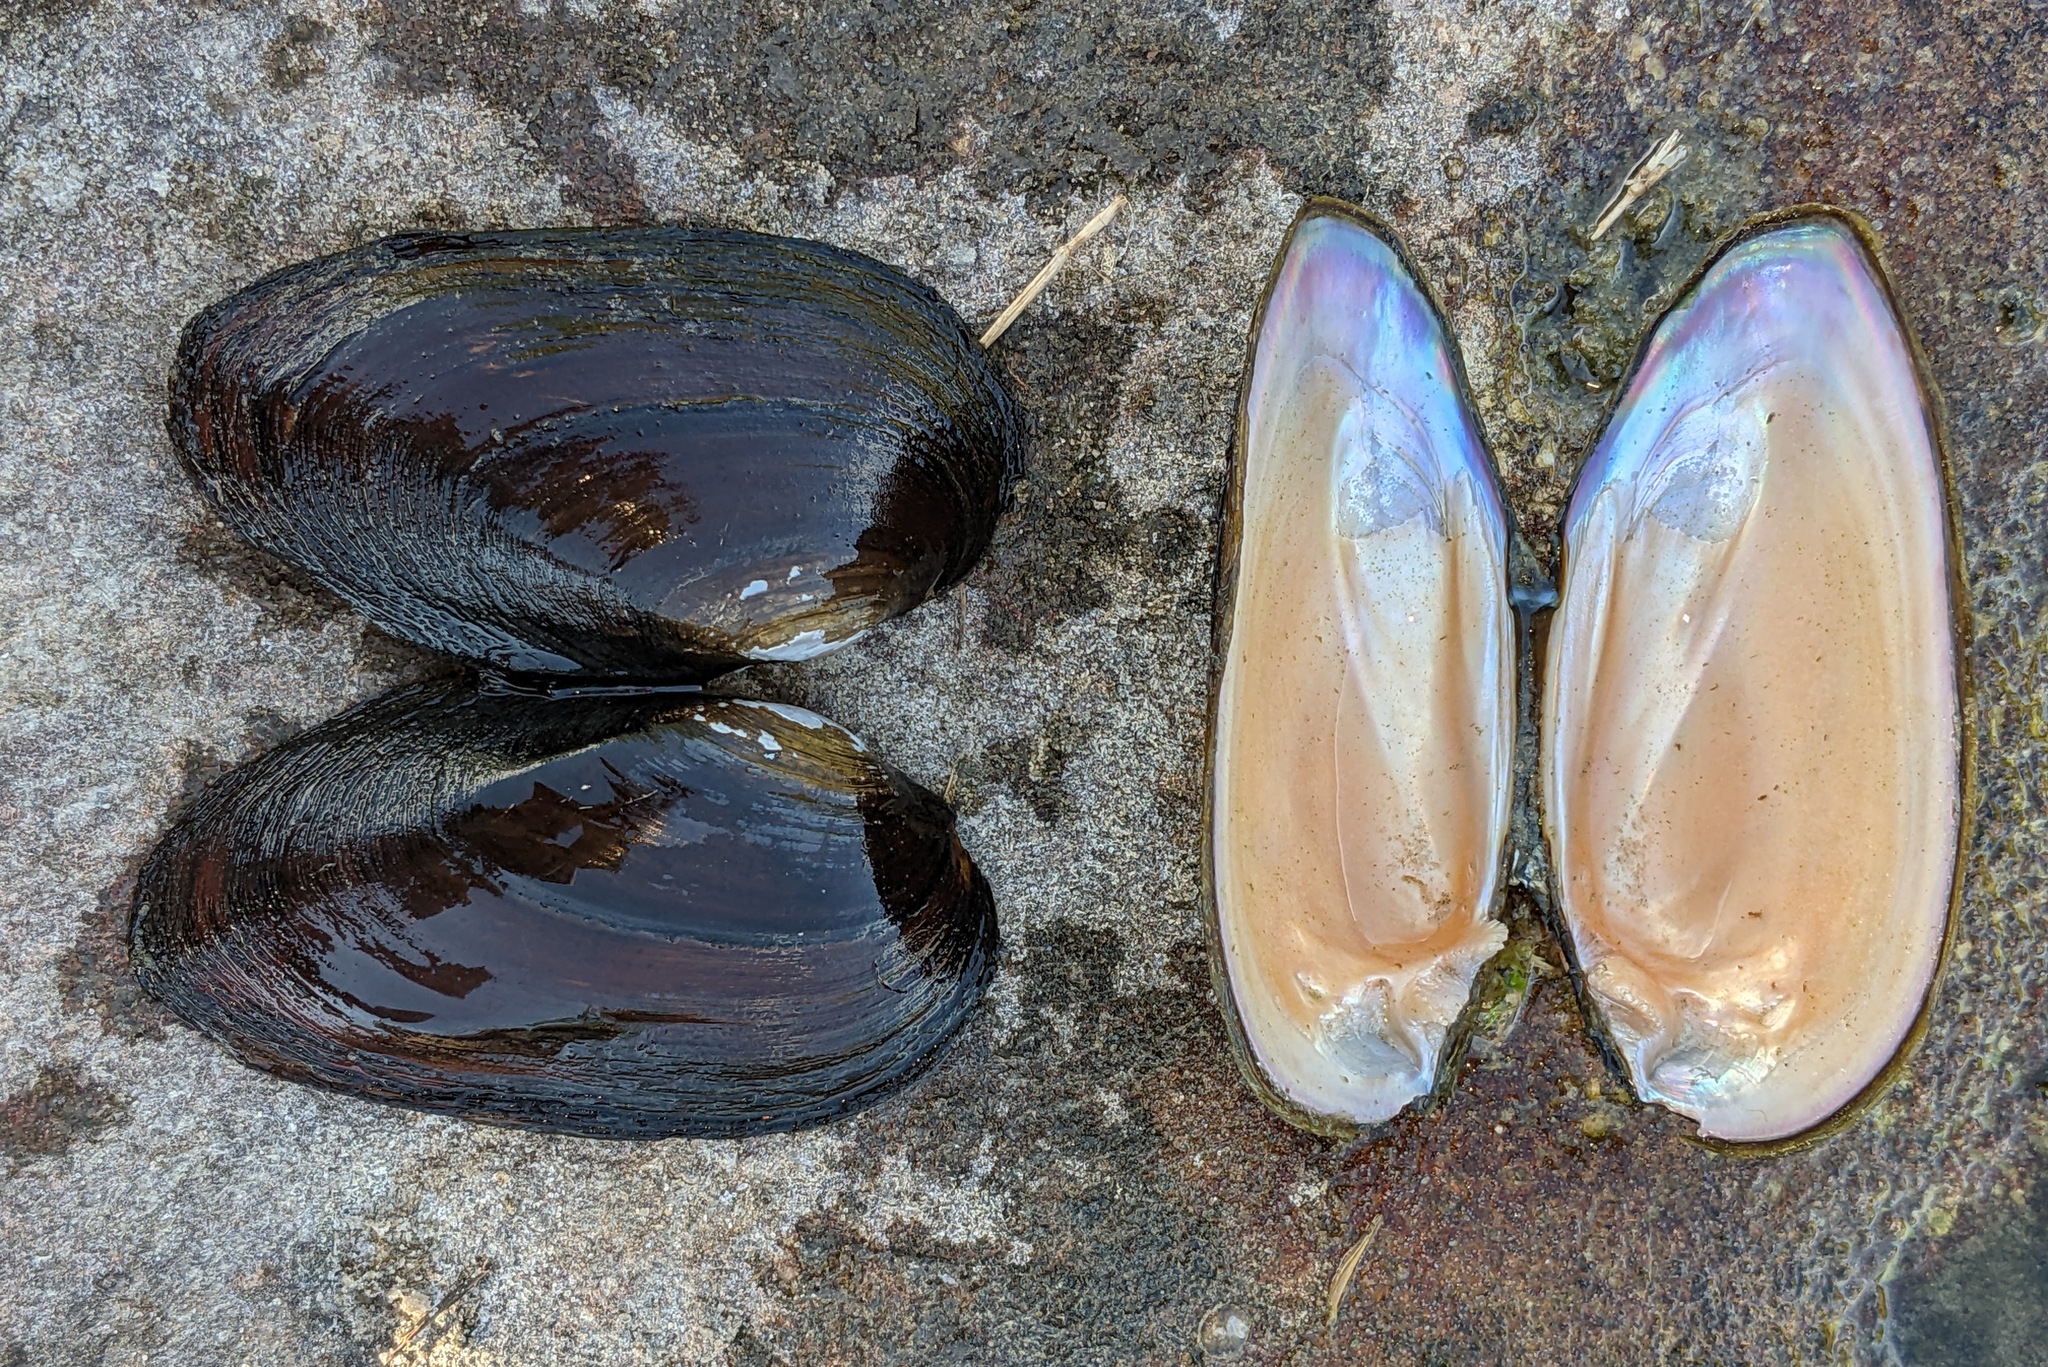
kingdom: Animalia
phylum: Mollusca
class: Bivalvia
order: Unionida
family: Unionidae
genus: Elliptio
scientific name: Elliptio jayensis
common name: Florida spike
